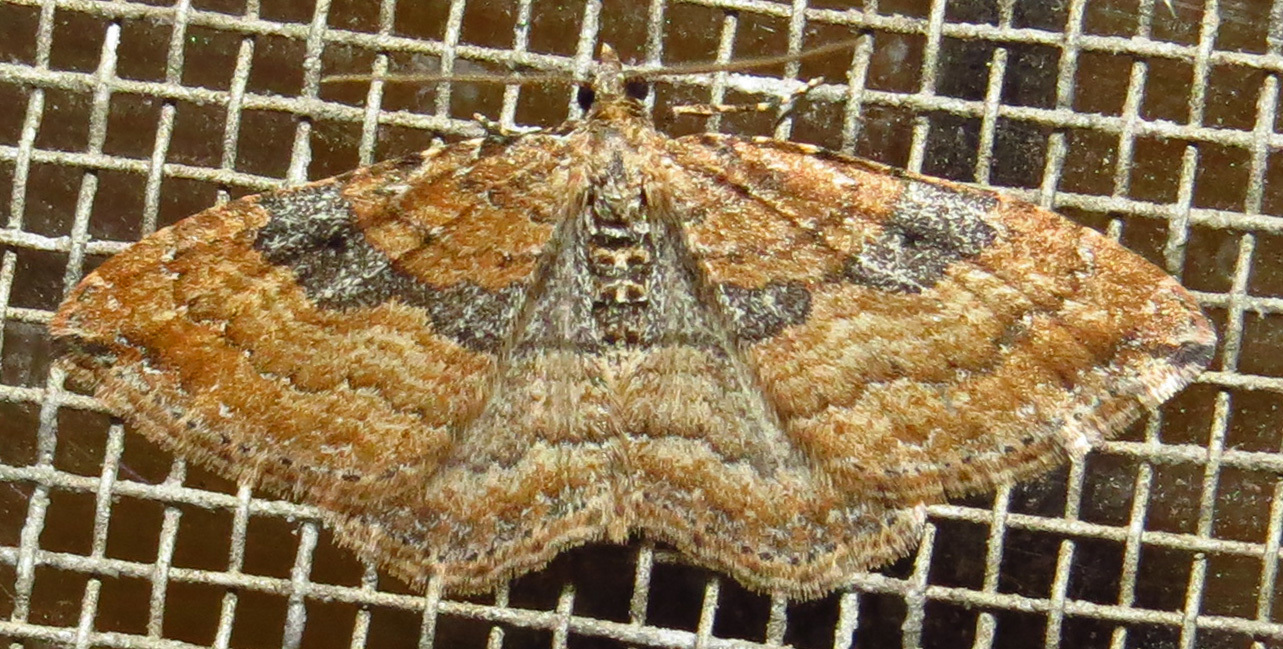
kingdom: Animalia
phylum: Arthropoda
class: Insecta
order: Lepidoptera
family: Geometridae
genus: Orthonama
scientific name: Orthonama obstipata
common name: The gem
